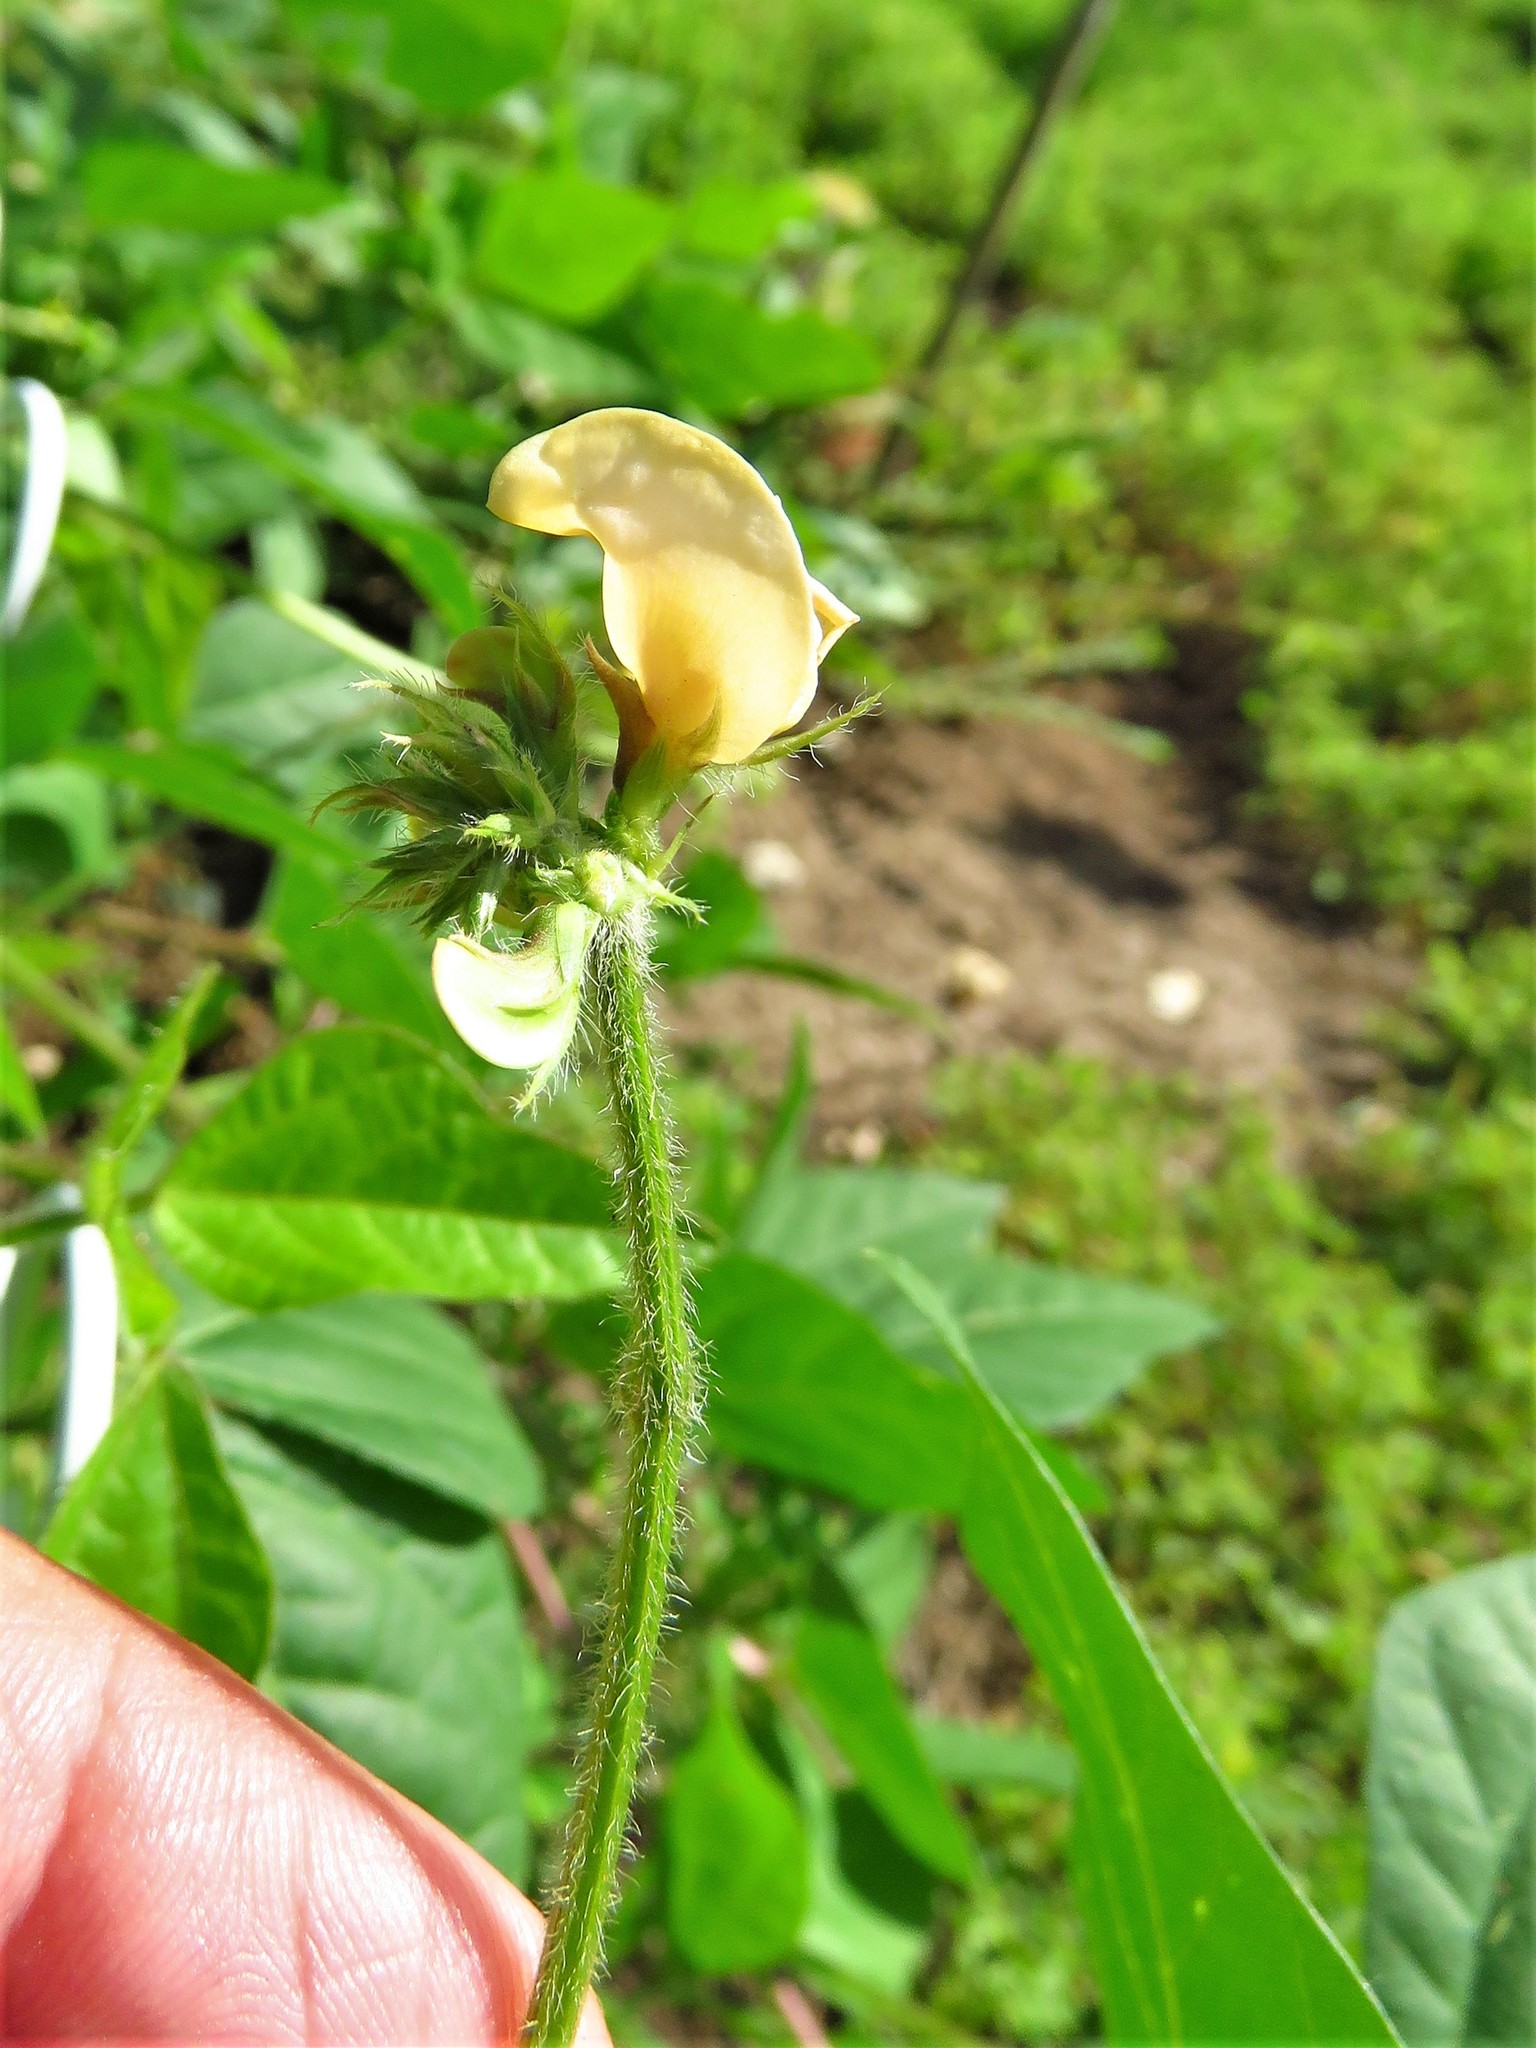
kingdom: Plantae
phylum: Tracheophyta
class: Magnoliopsida
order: Fabales
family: Fabaceae
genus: Strophostyles
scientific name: Strophostyles helvola
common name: Trailing wild bean
